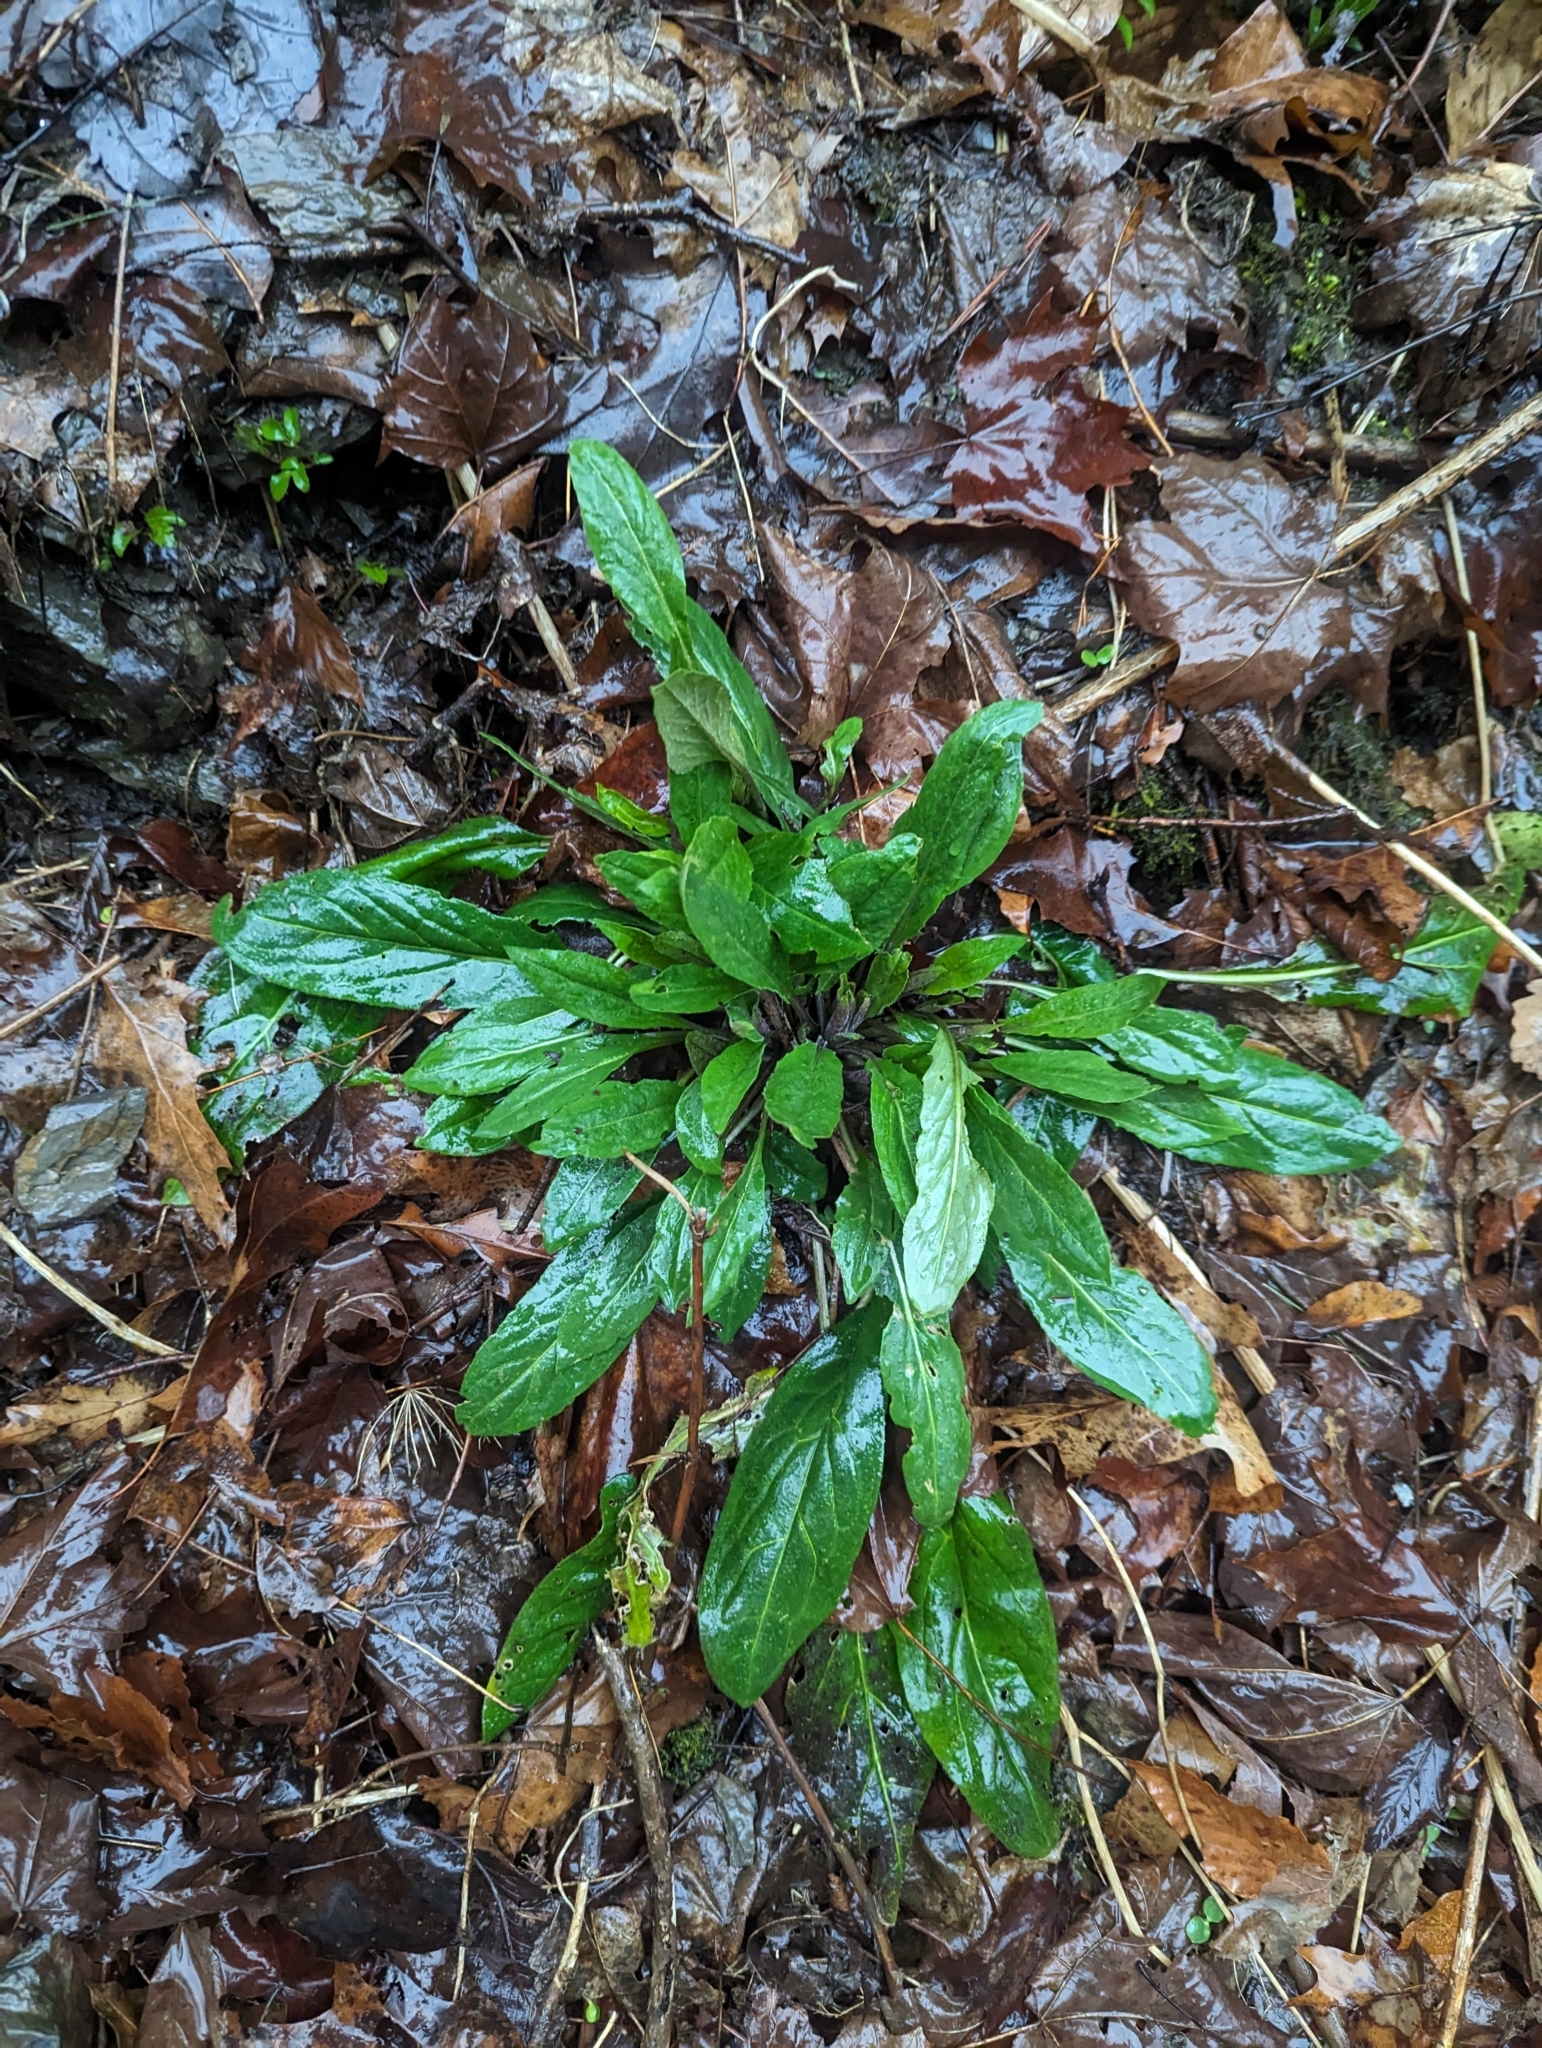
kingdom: Plantae
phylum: Tracheophyta
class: Magnoliopsida
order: Brassicales
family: Brassicaceae
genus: Hesperis
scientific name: Hesperis matronalis
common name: Dame's-violet
